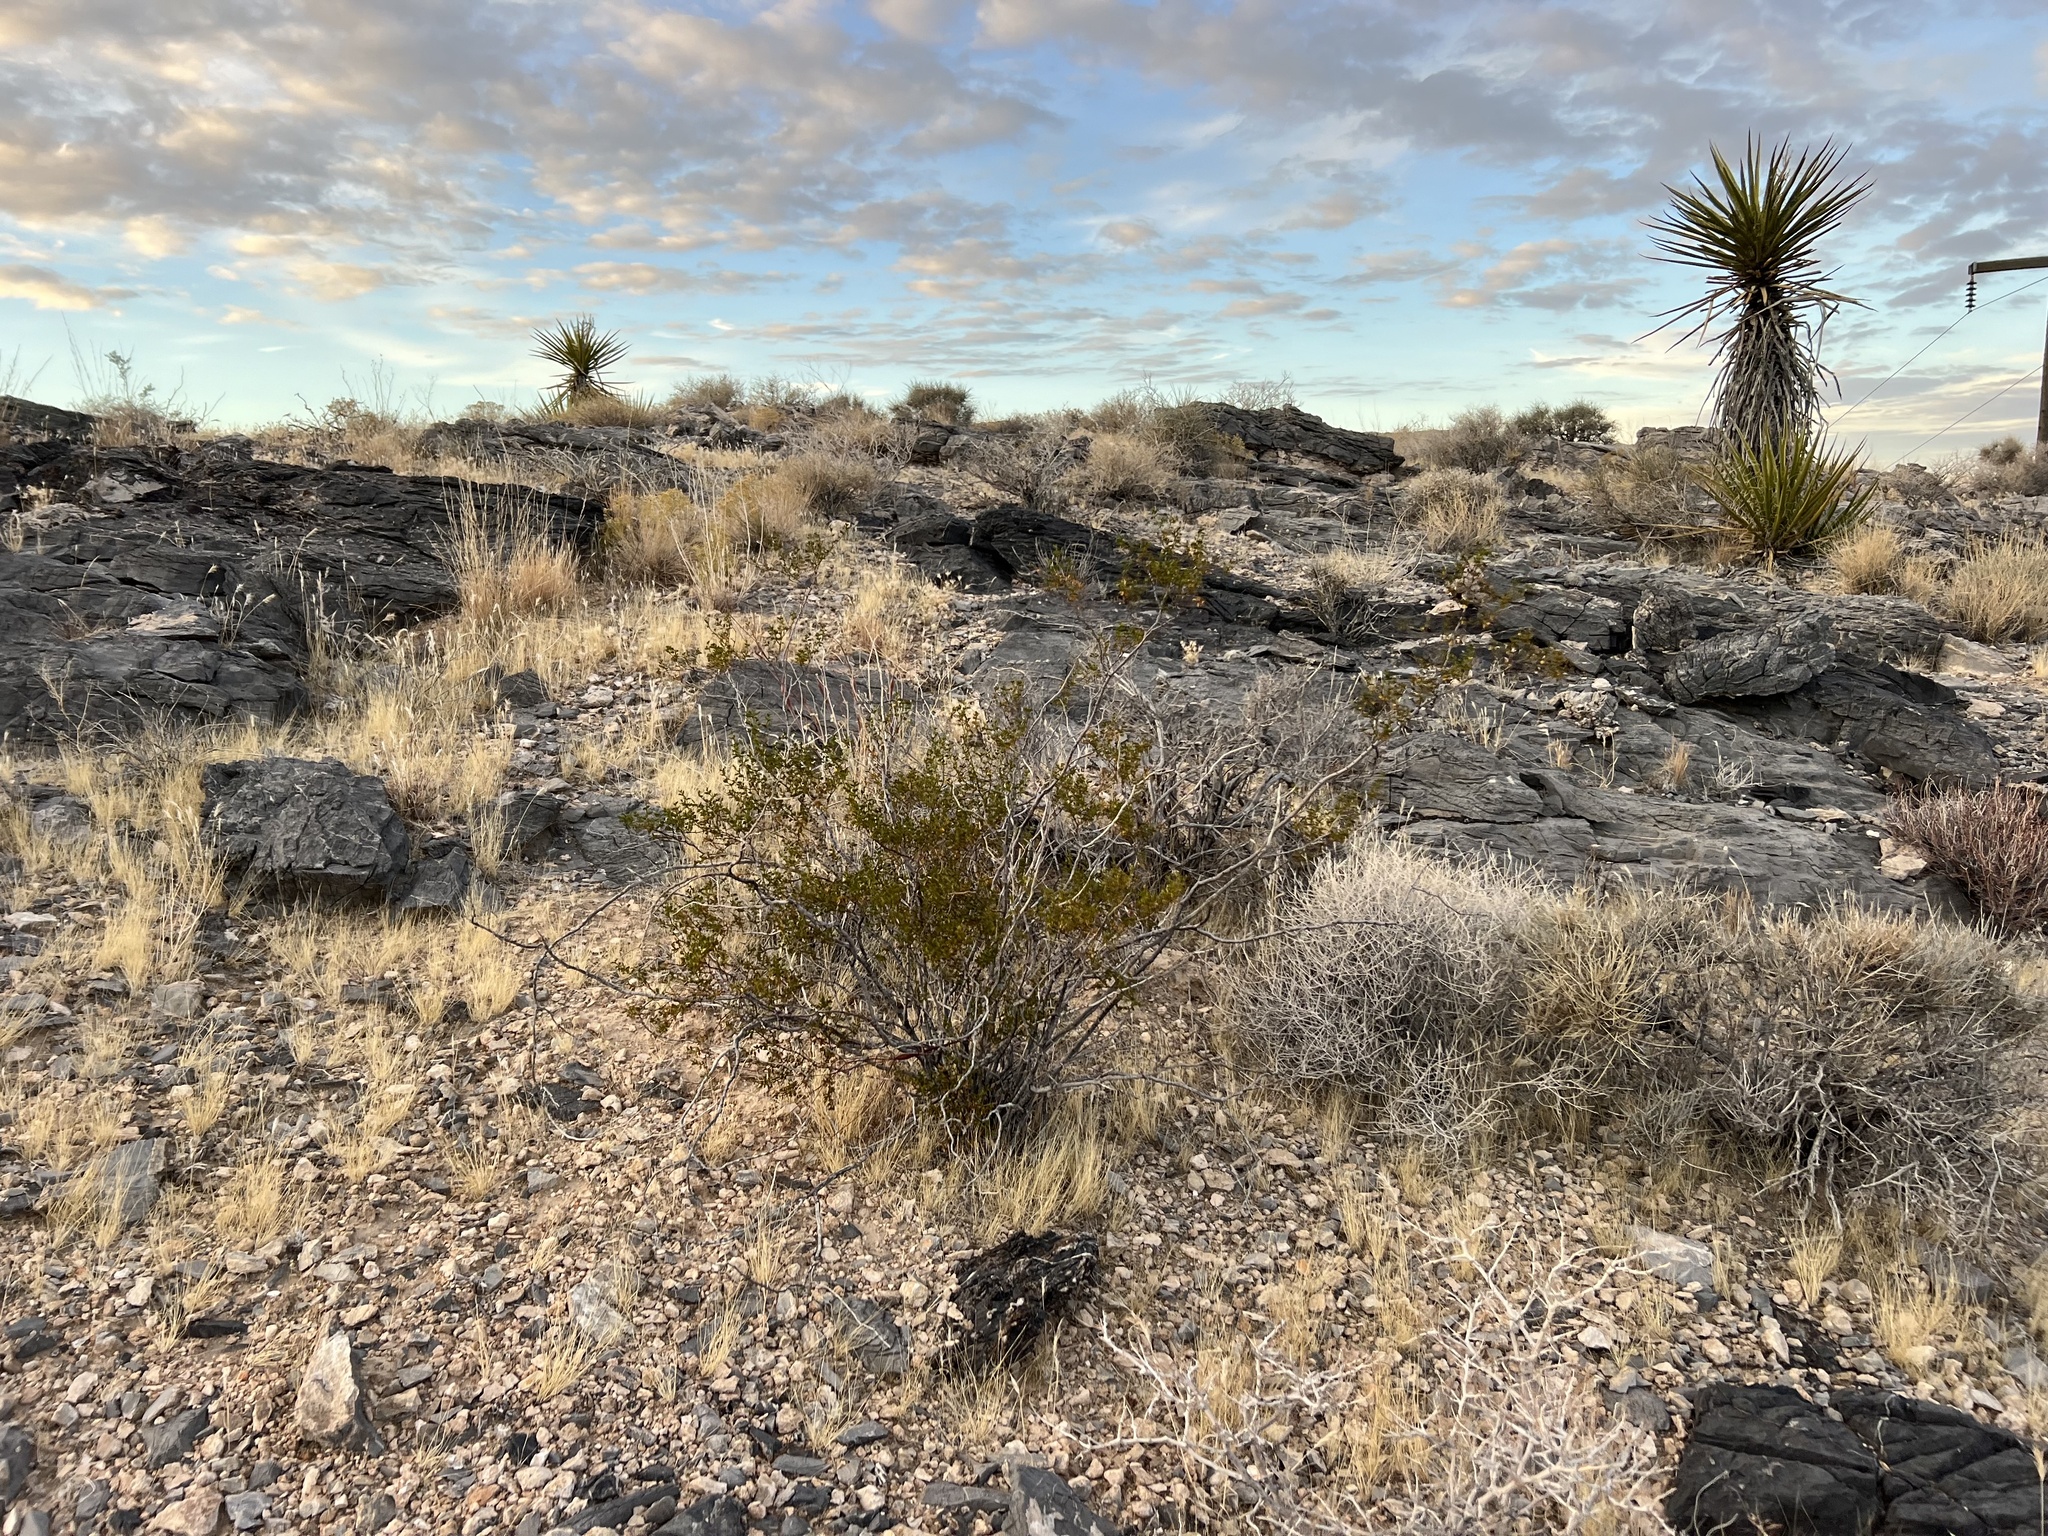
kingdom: Plantae
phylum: Tracheophyta
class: Magnoliopsida
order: Zygophyllales
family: Zygophyllaceae
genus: Larrea
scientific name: Larrea tridentata
